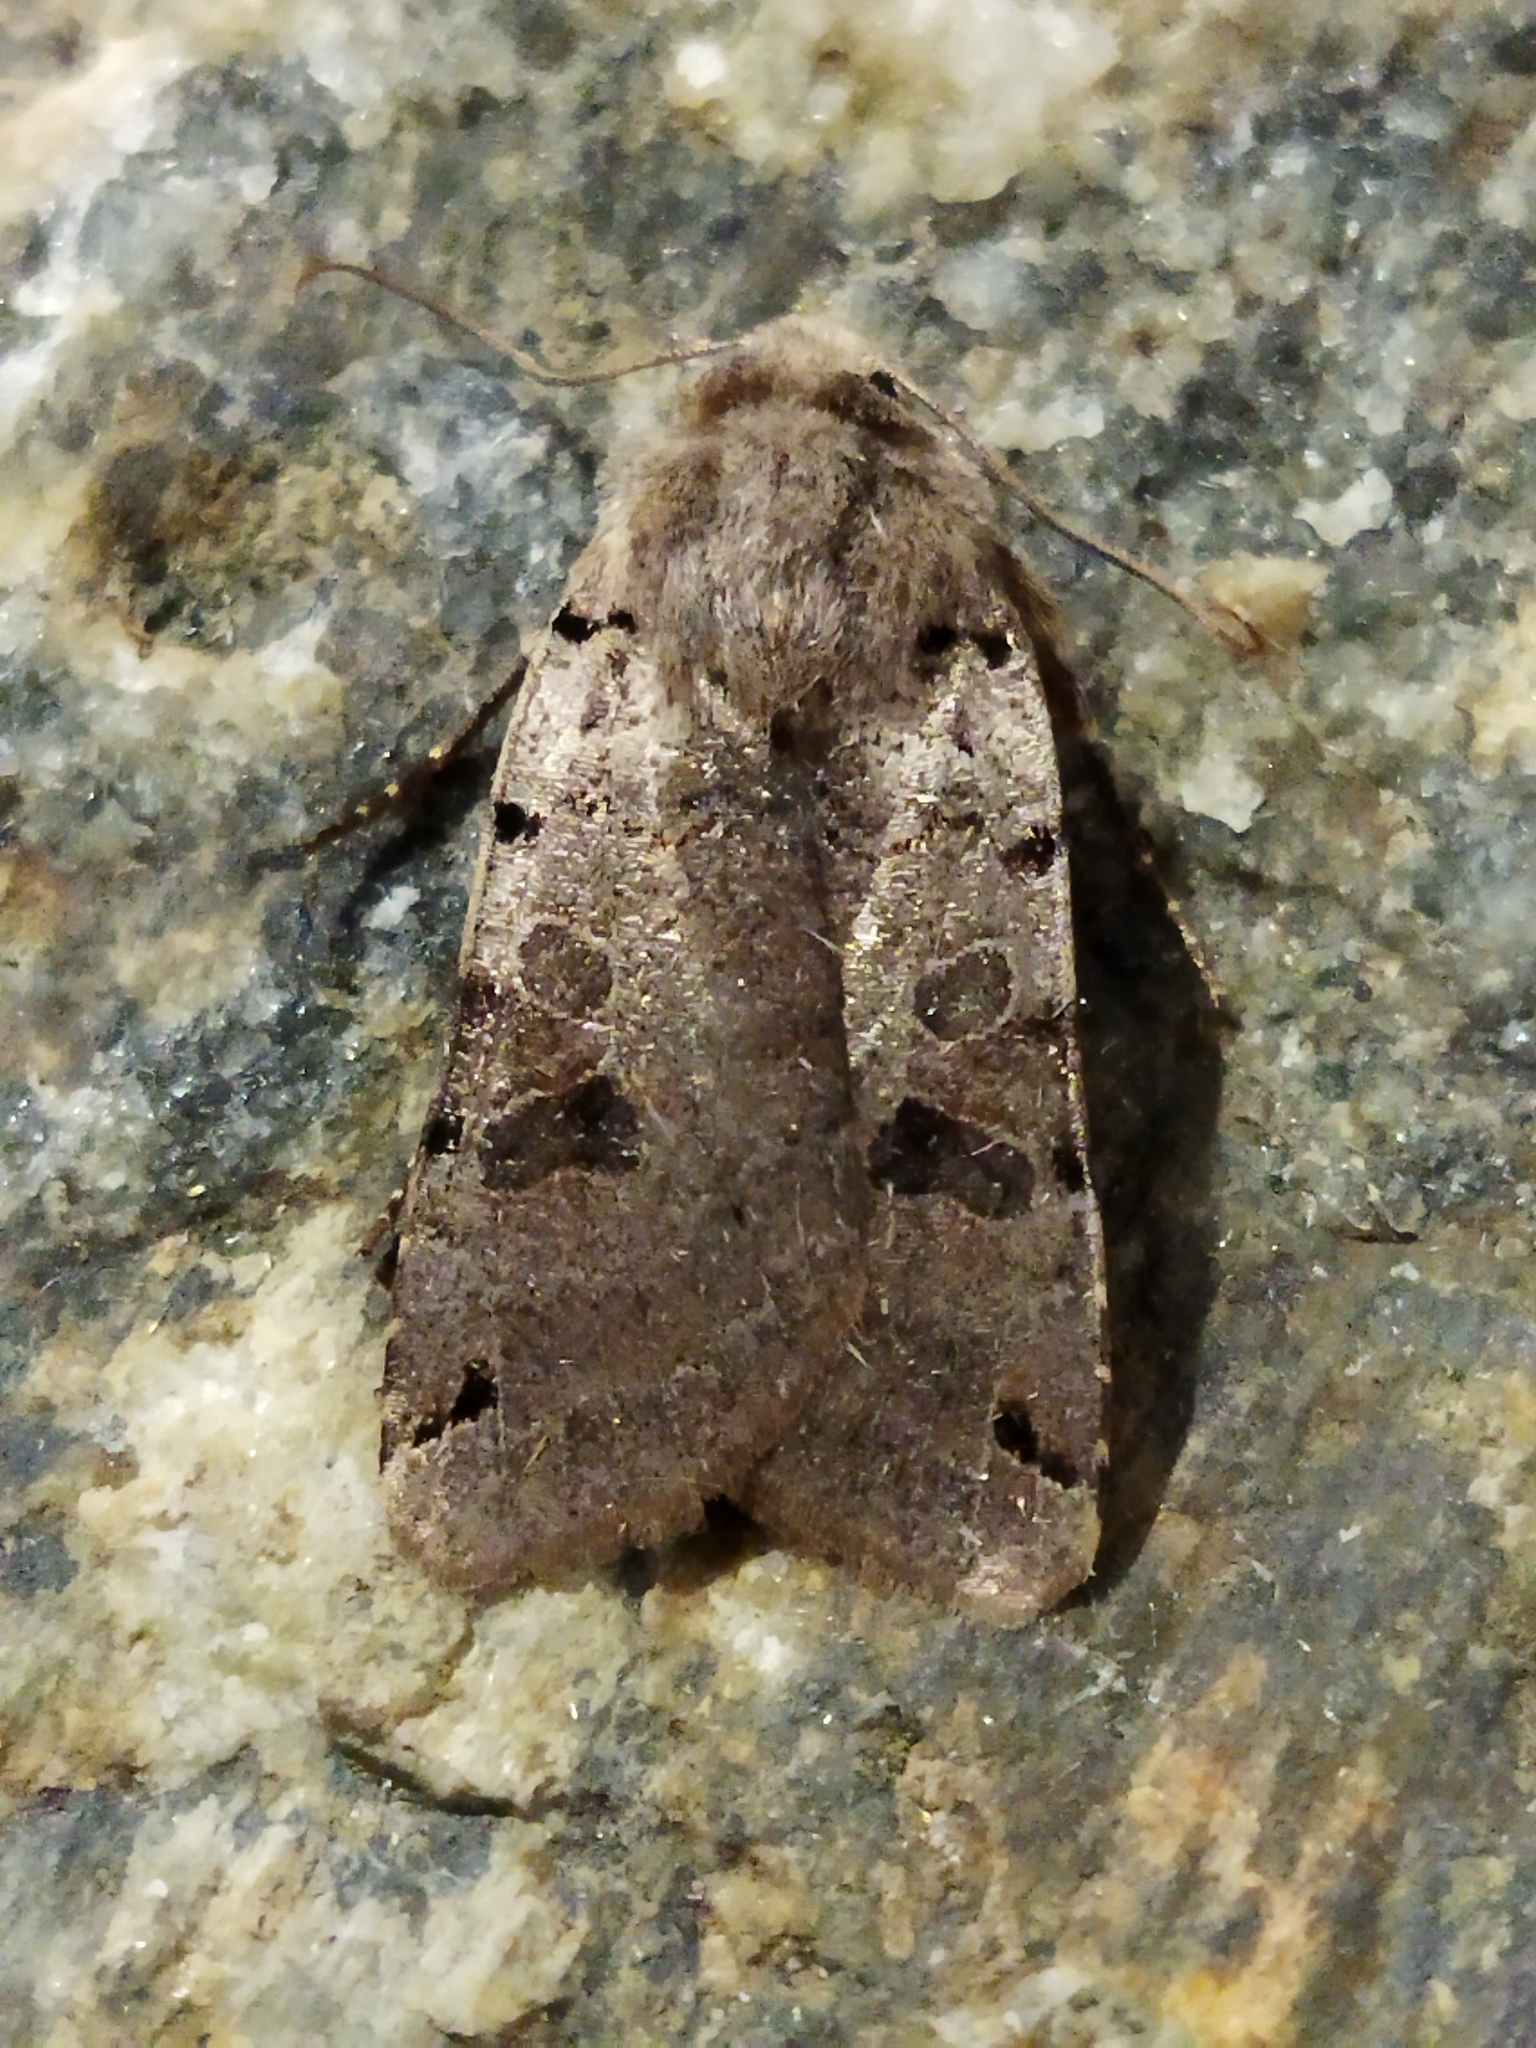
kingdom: Animalia
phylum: Arthropoda
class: Insecta
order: Lepidoptera
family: Noctuidae
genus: Agrochola
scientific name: Agrochola litura
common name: Brown-spot pinion
